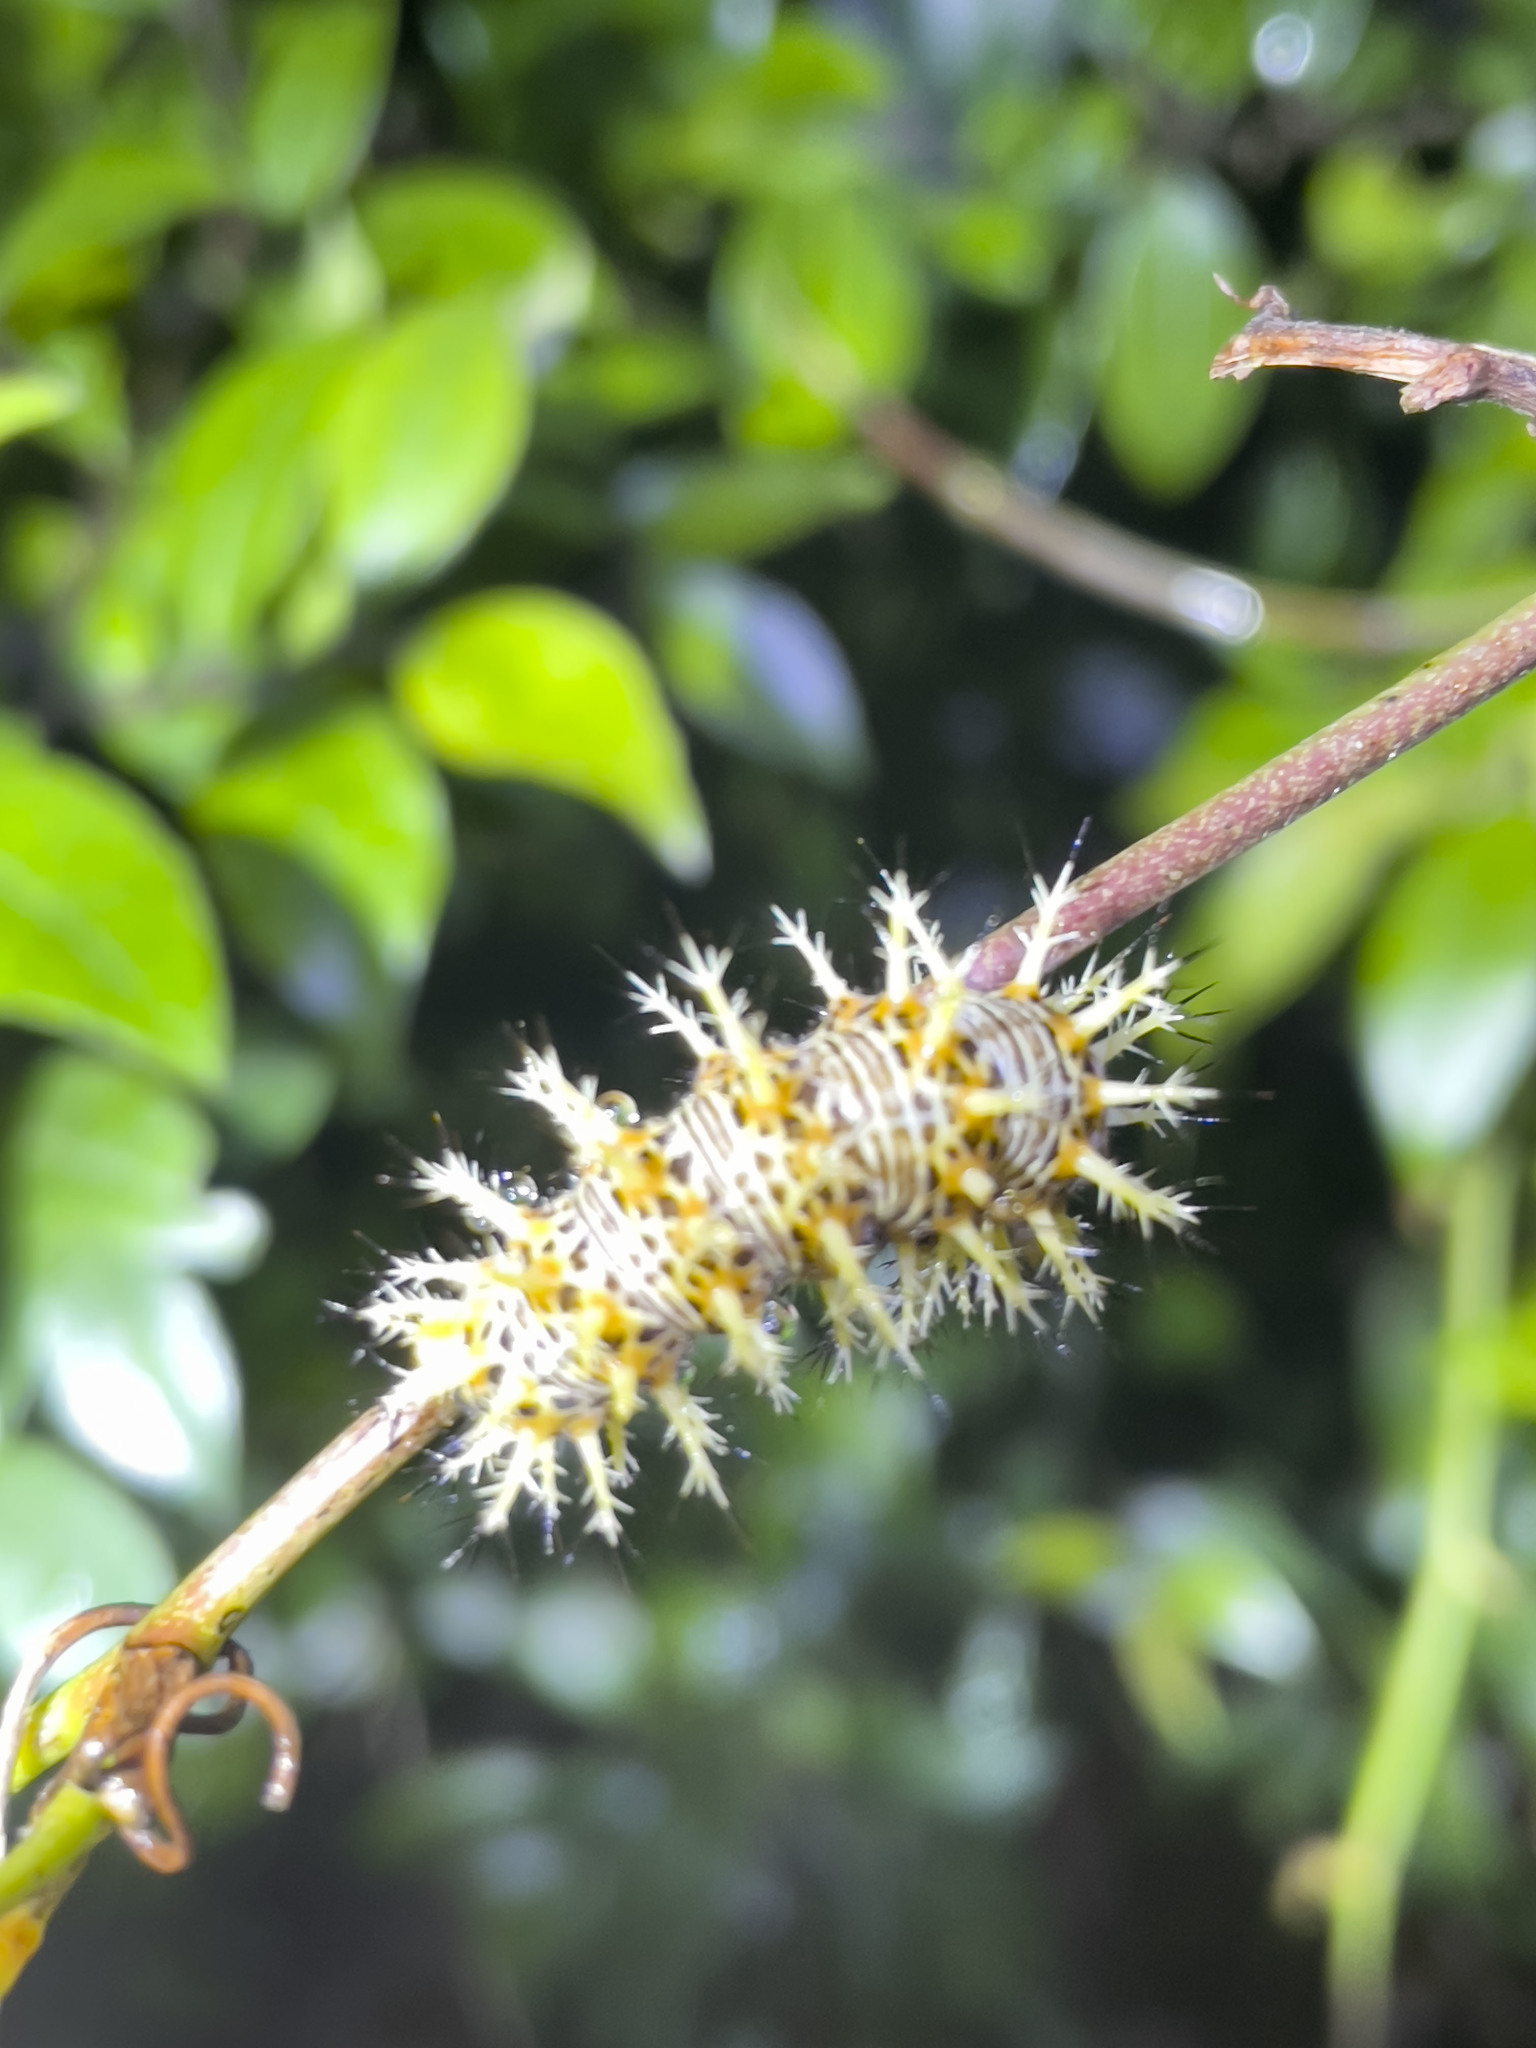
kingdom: Animalia
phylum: Arthropoda
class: Insecta
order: Lepidoptera
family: Nymphalidae
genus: Vanessa
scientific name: Vanessa Kaniska canace
